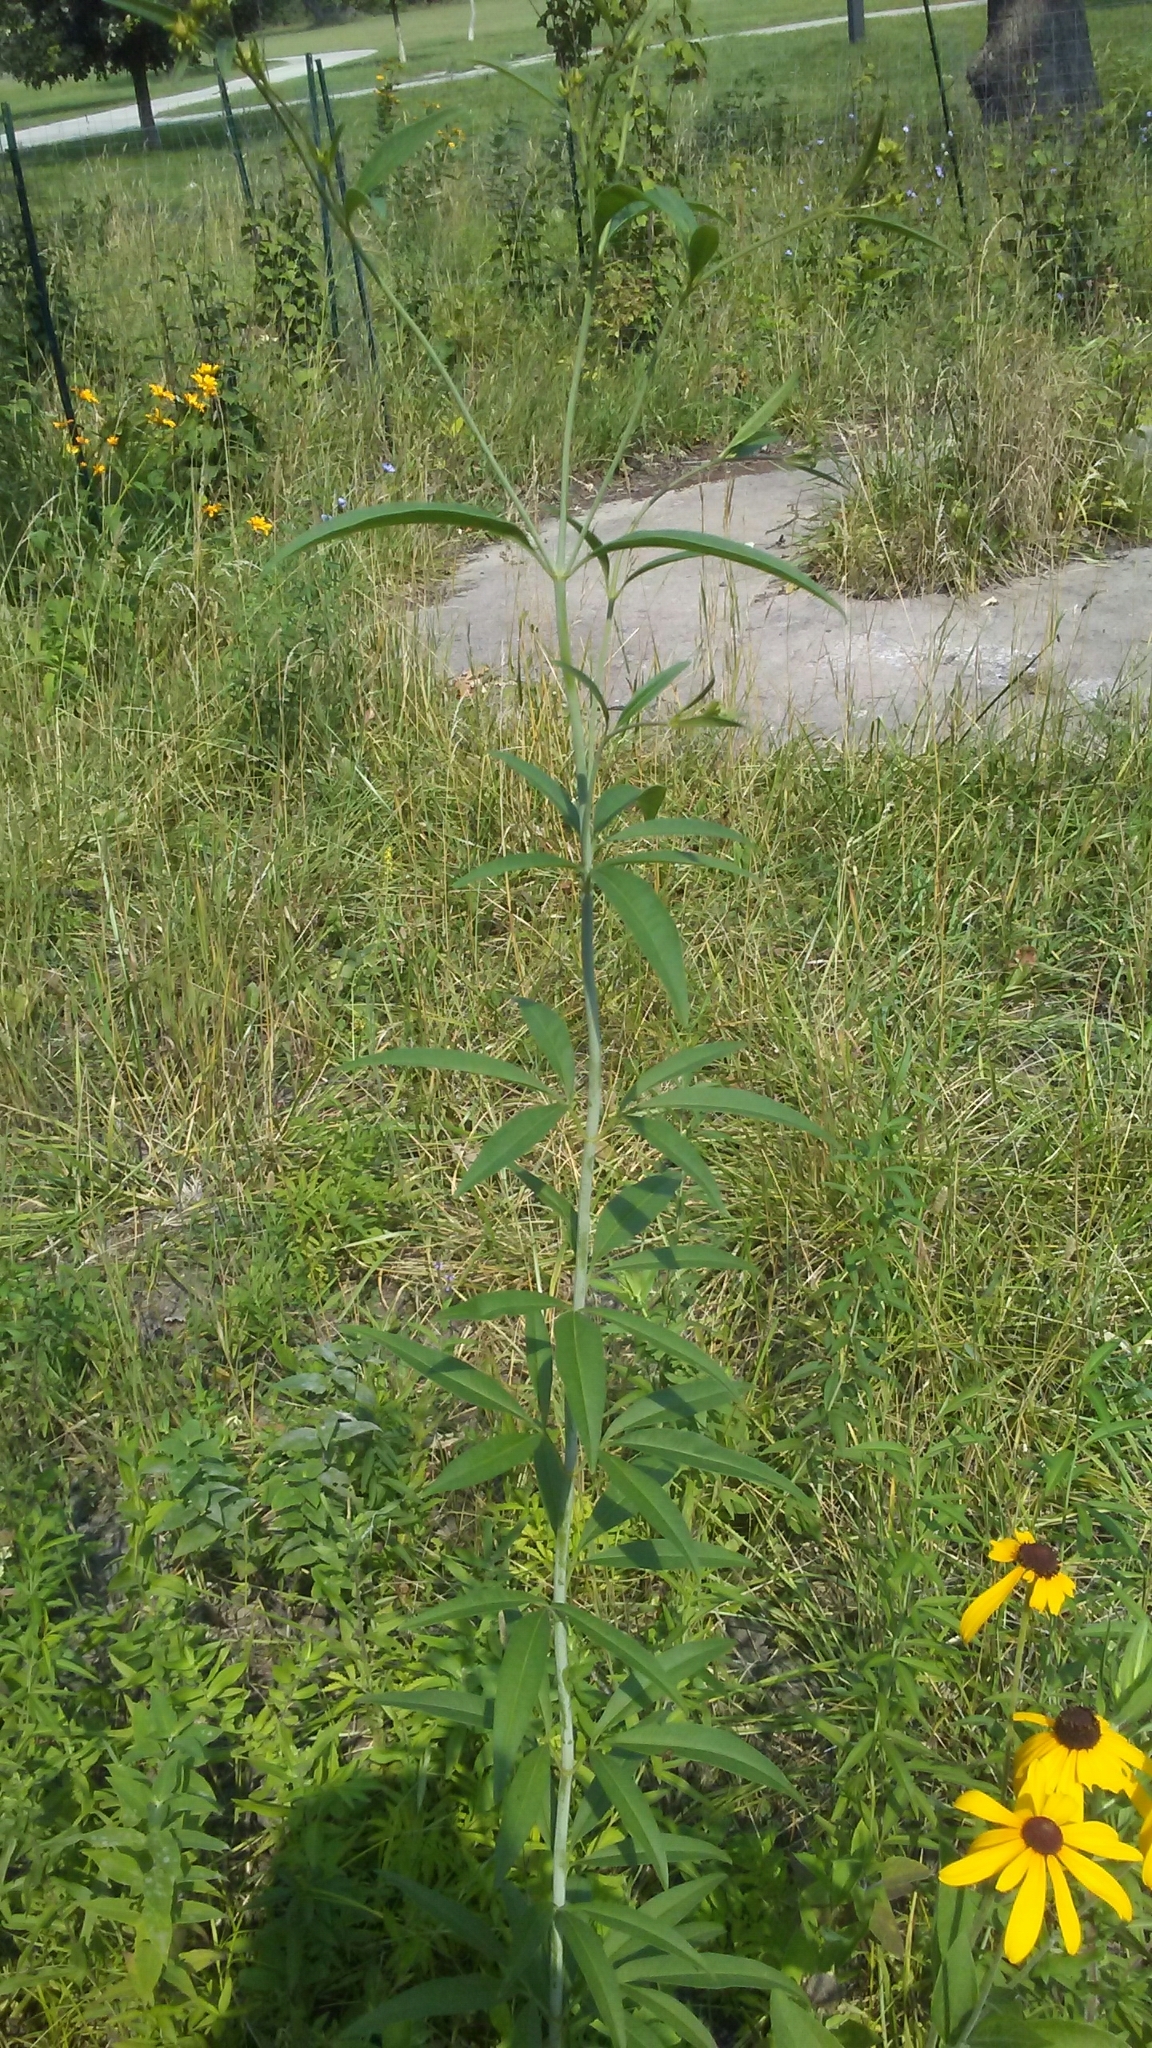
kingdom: Plantae
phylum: Tracheophyta
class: Magnoliopsida
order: Asterales
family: Asteraceae
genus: Coreopsis
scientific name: Coreopsis tripteris
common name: Tall coreopsis
